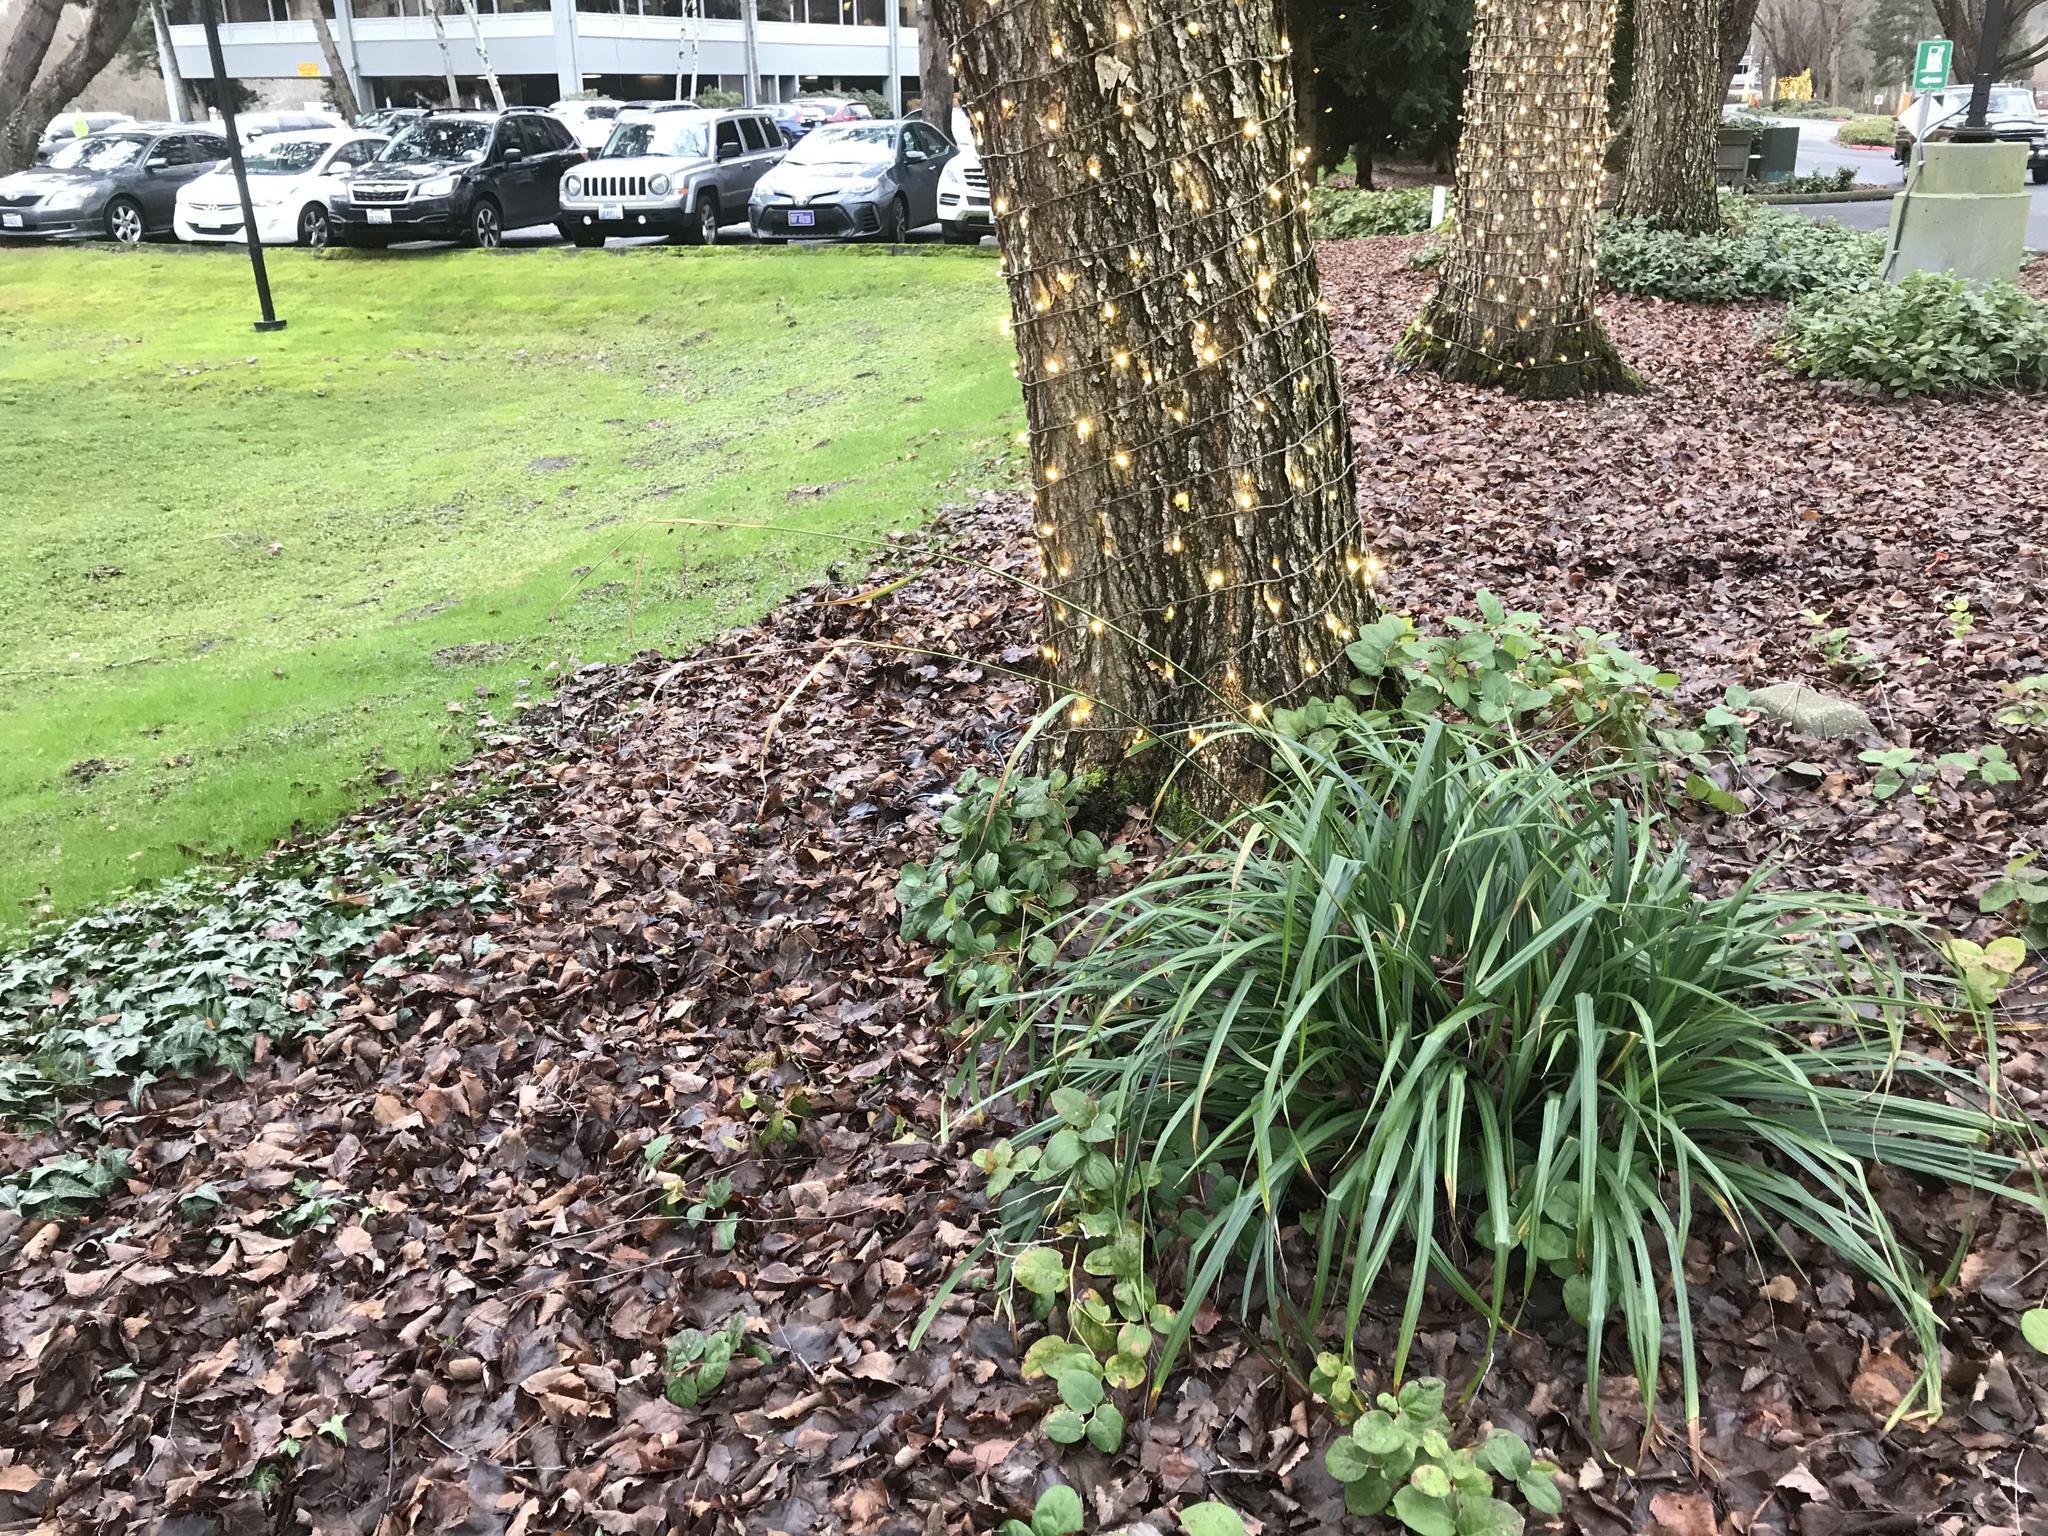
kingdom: Plantae
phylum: Tracheophyta
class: Liliopsida
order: Poales
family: Cyperaceae
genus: Carex
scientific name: Carex pendula
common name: Pendulous sedge
